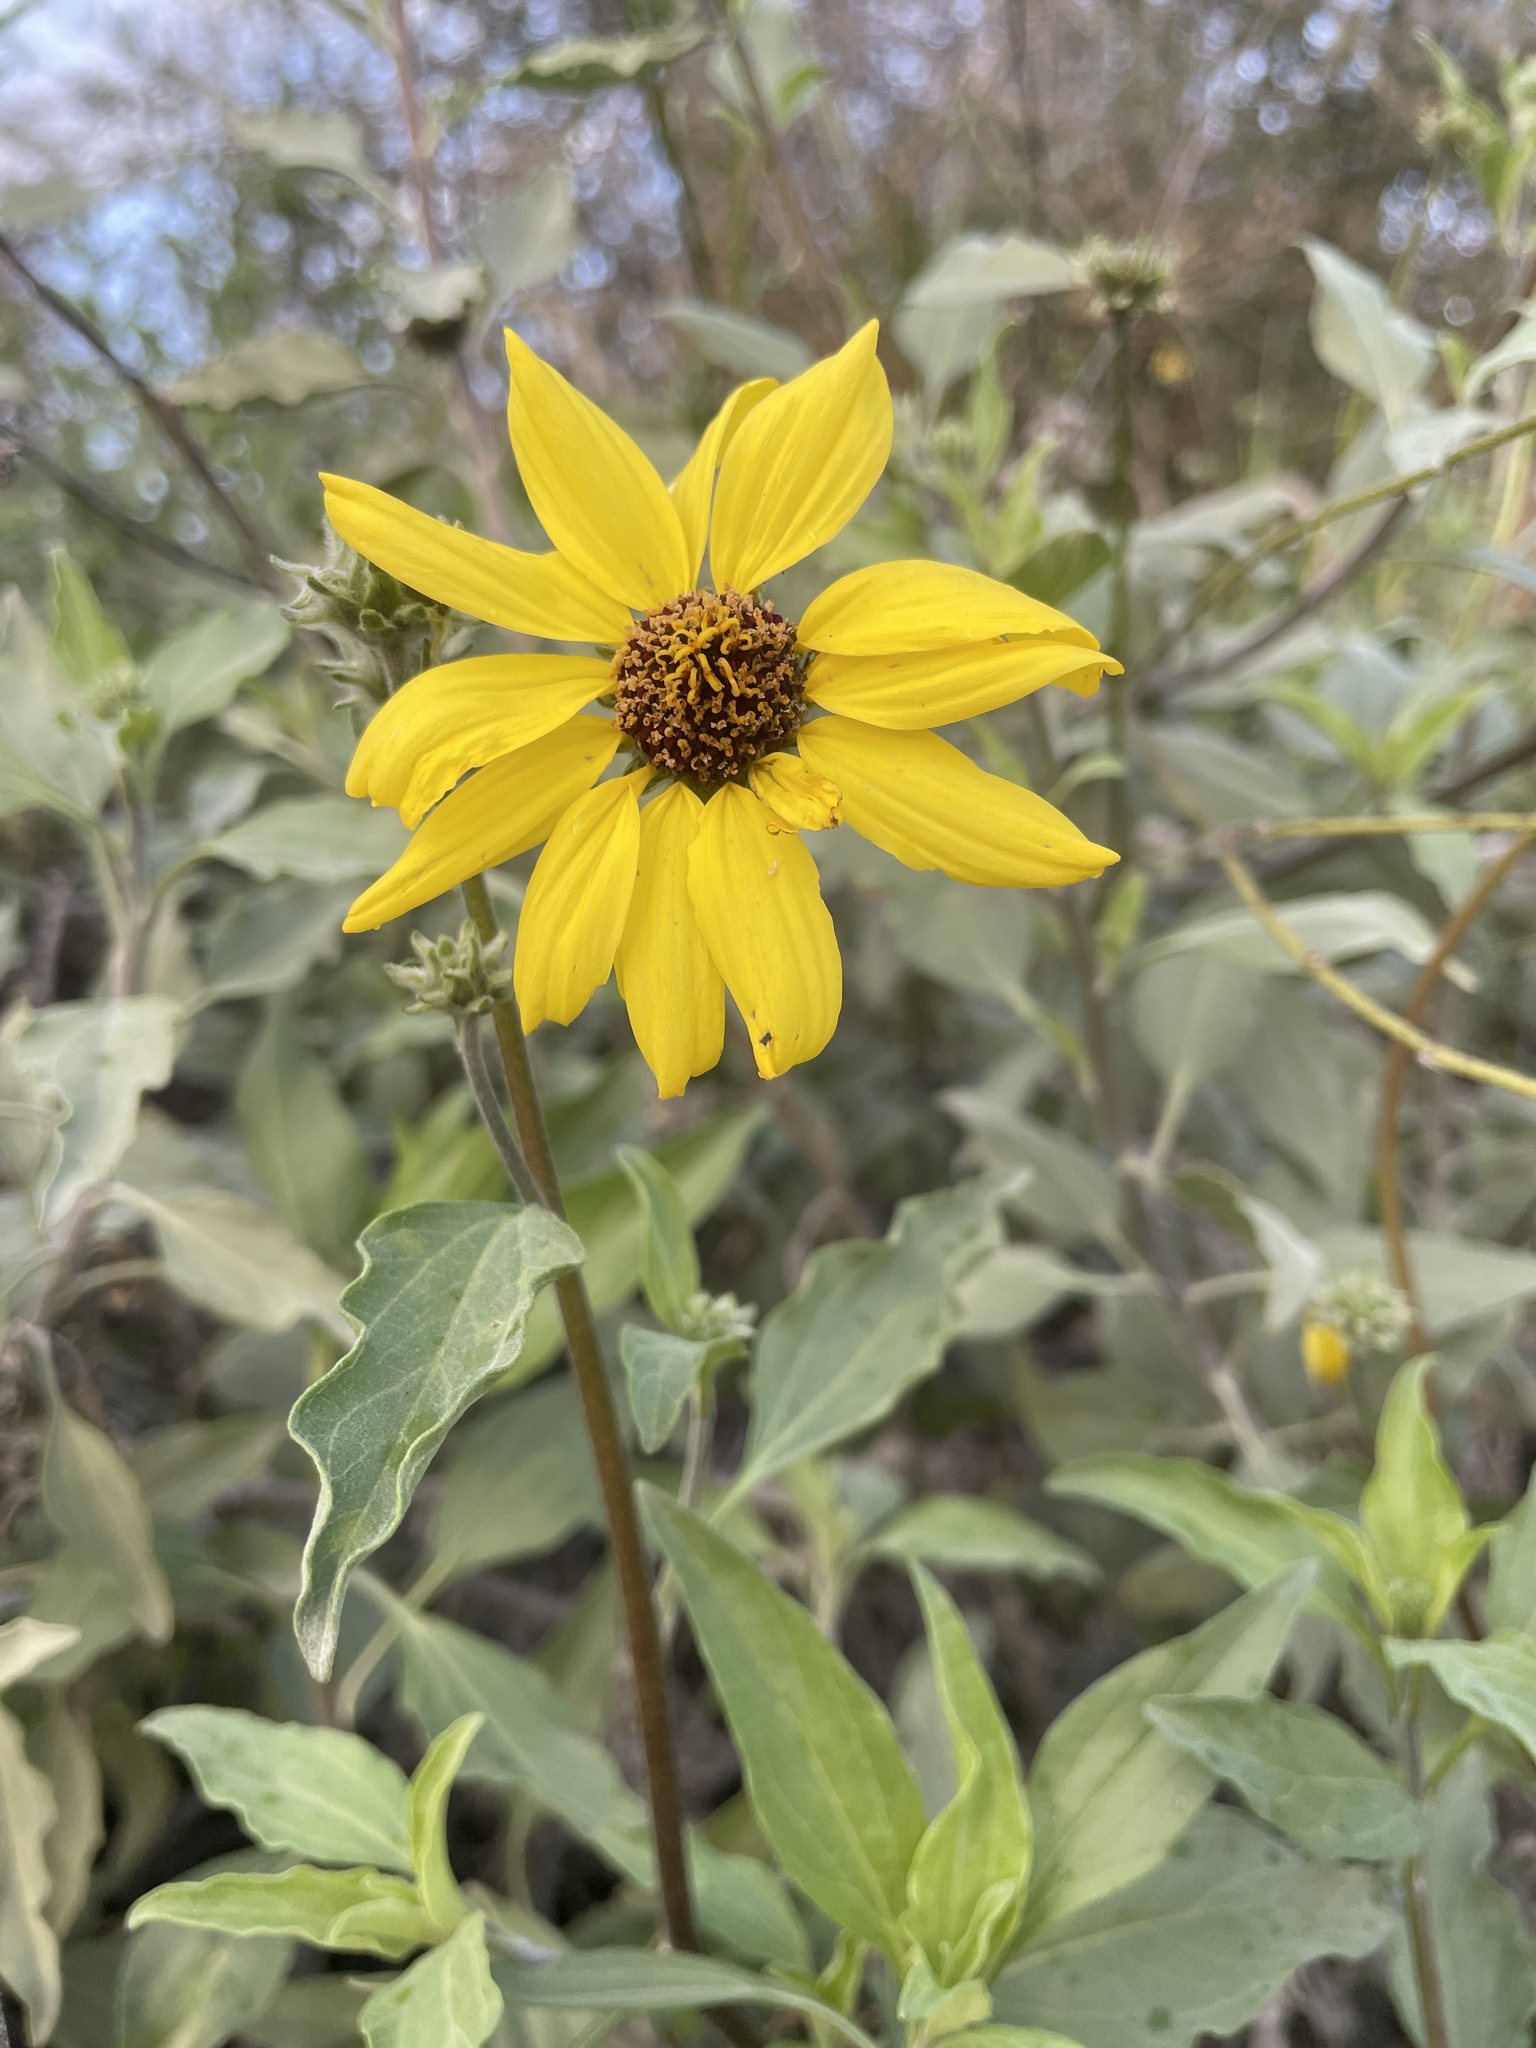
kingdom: Plantae
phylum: Tracheophyta
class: Magnoliopsida
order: Asterales
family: Asteraceae
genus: Encelia
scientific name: Encelia californica
